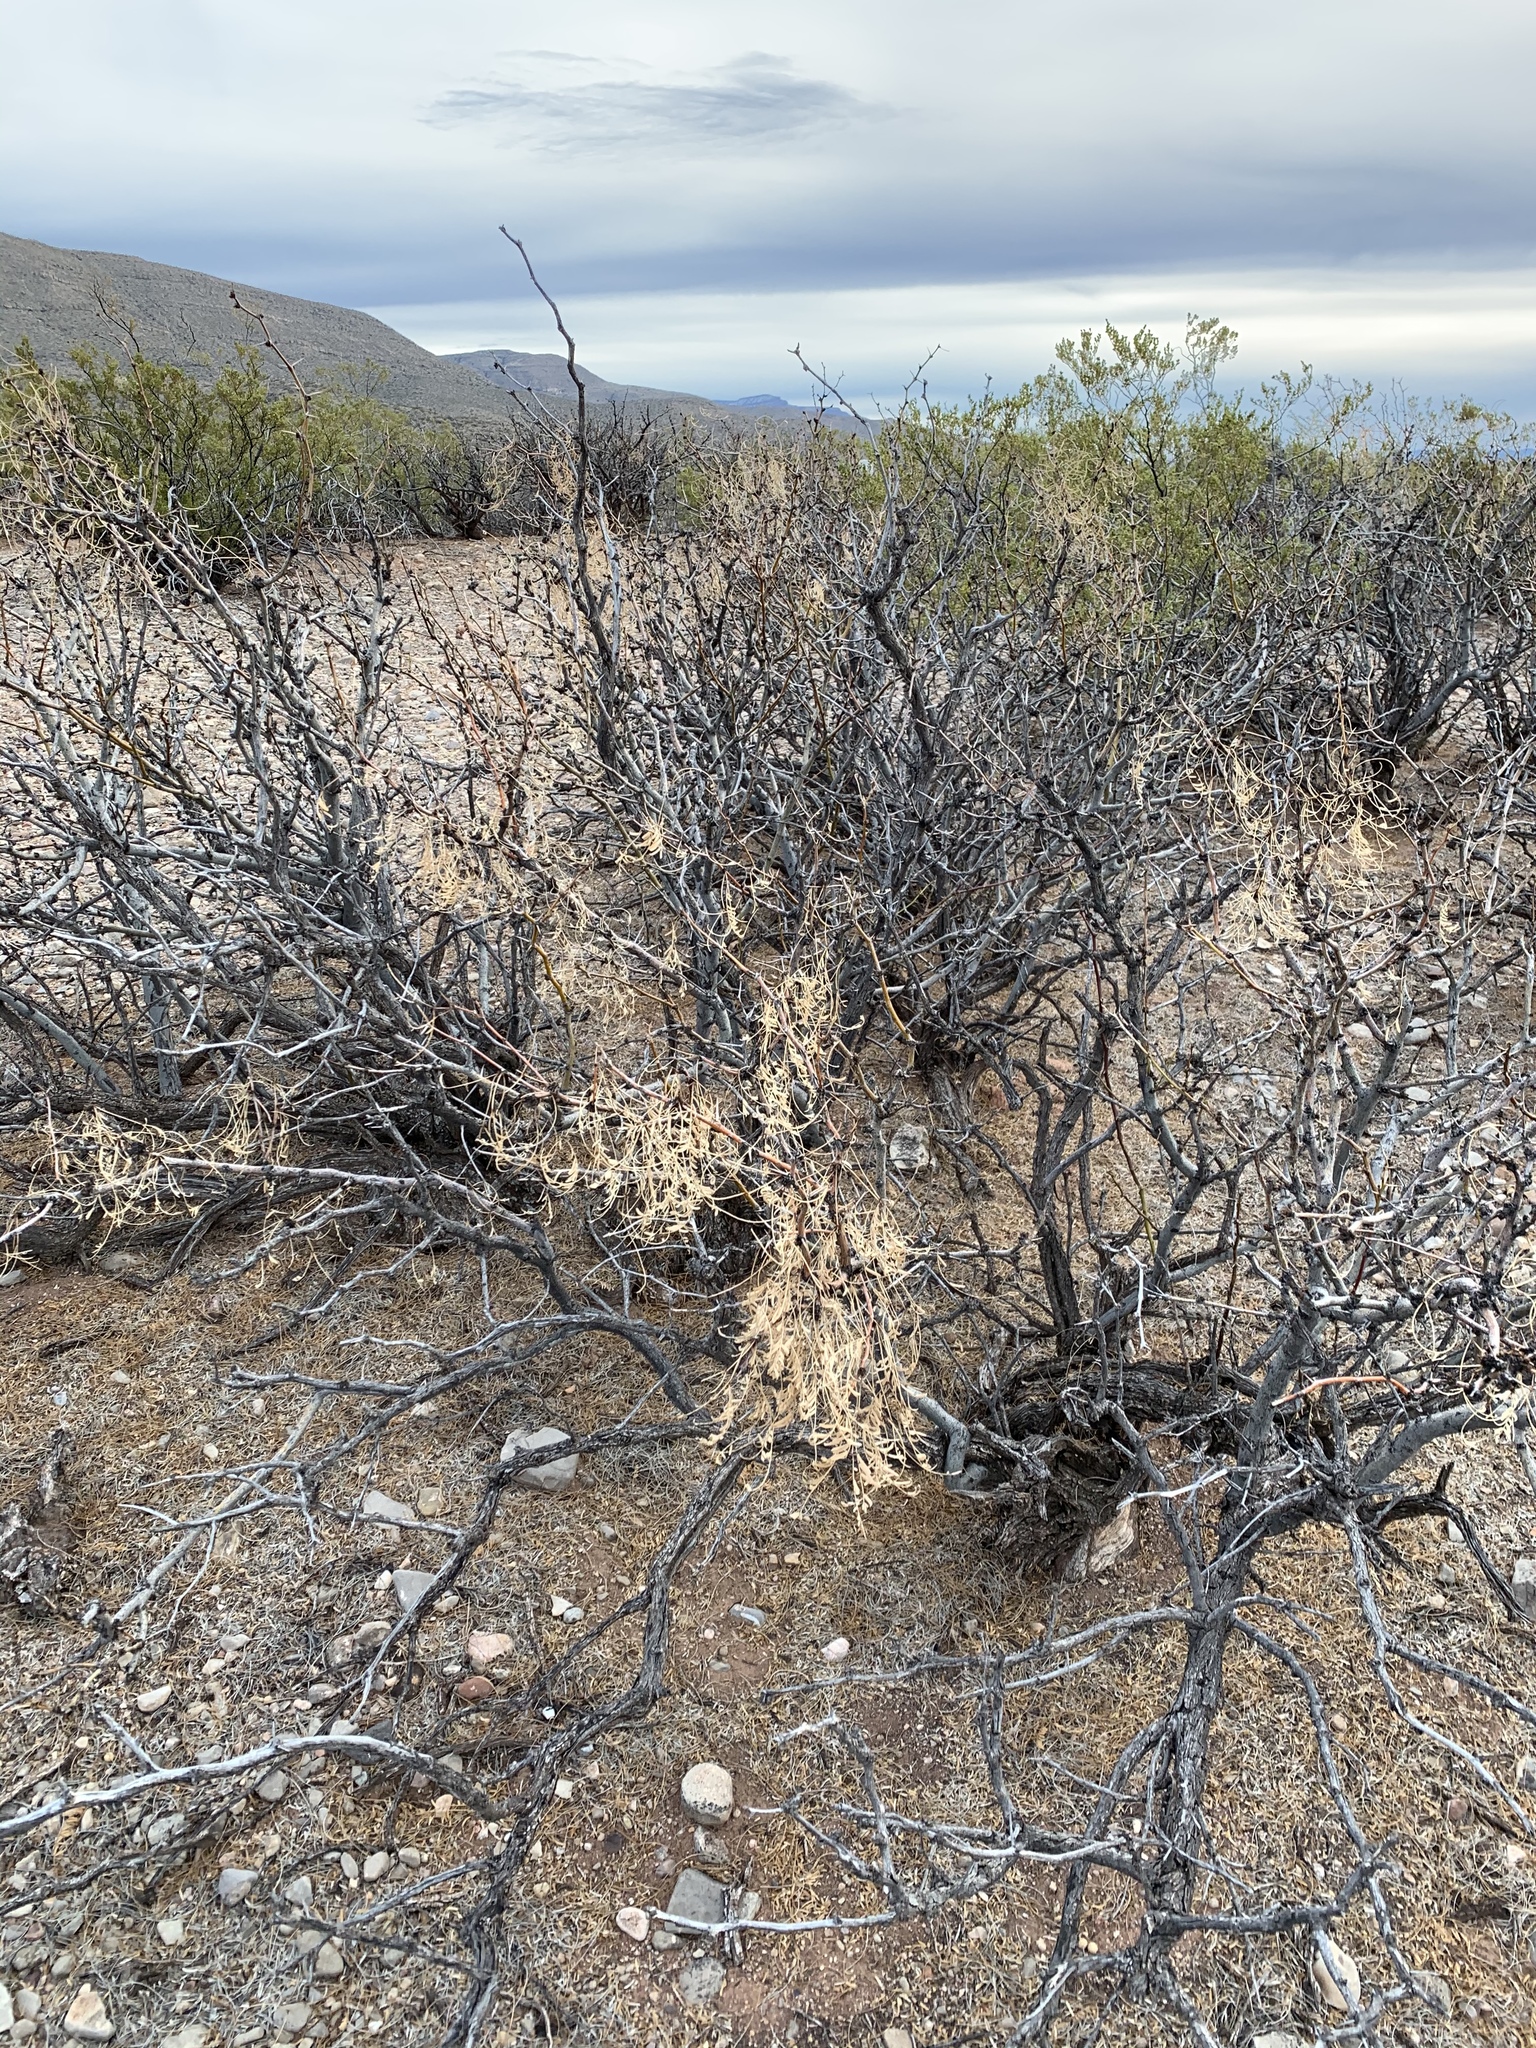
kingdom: Plantae
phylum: Tracheophyta
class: Magnoliopsida
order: Fabales
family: Fabaceae
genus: Prosopis
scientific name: Prosopis glandulosa
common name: Honey mesquite
